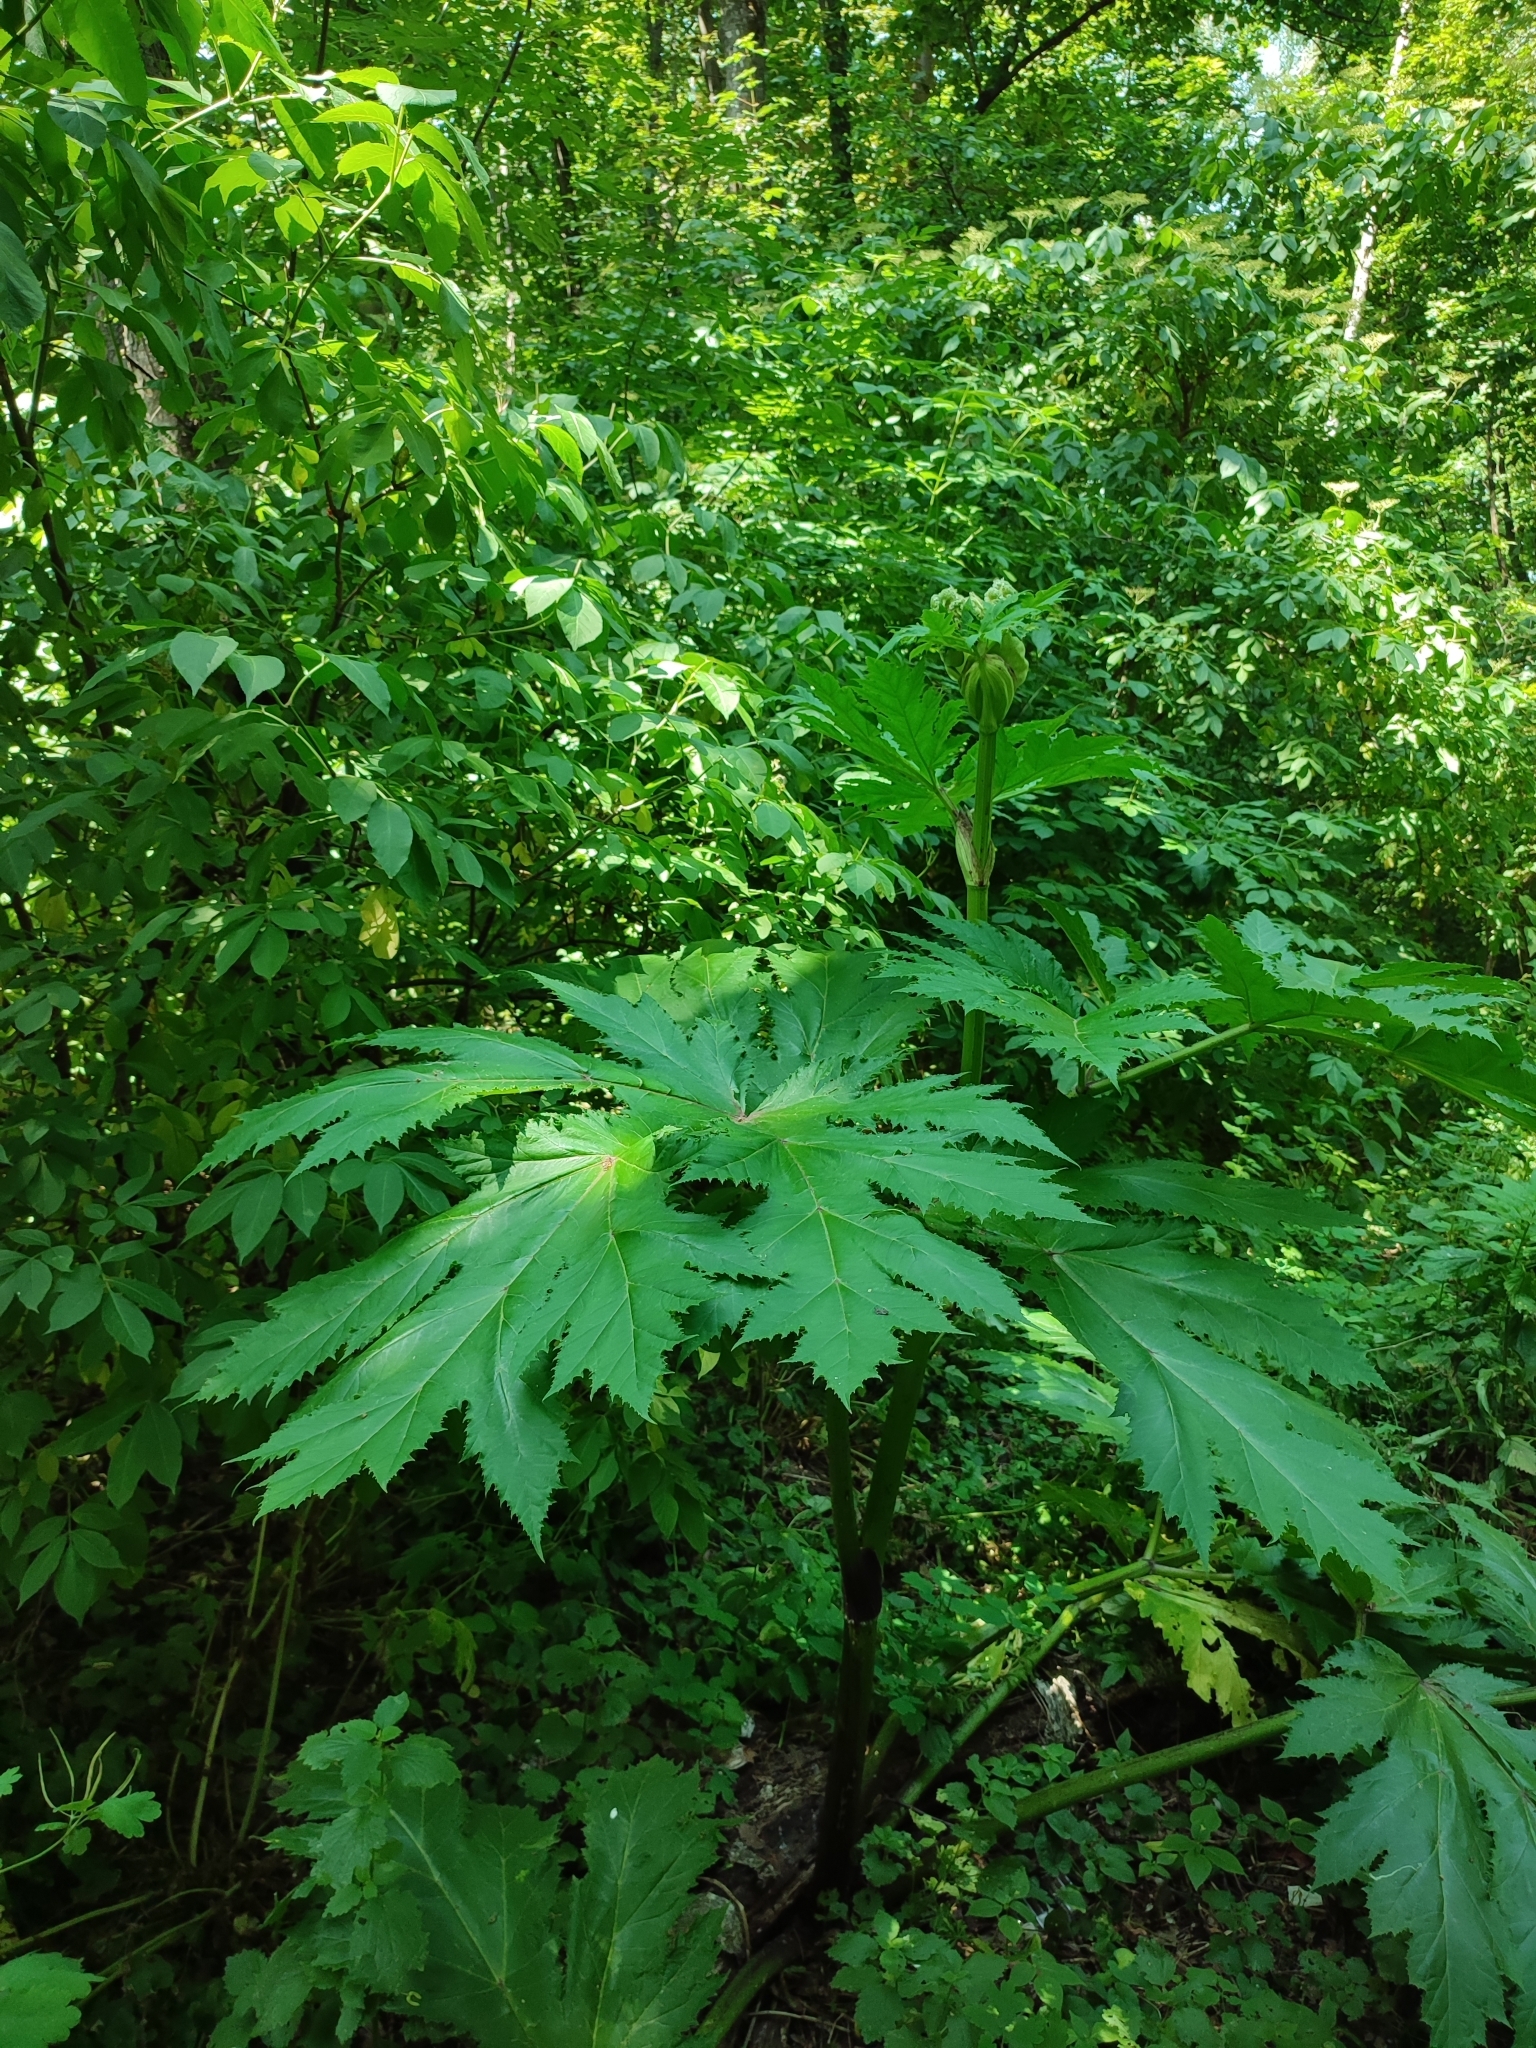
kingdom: Plantae
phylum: Tracheophyta
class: Magnoliopsida
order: Apiales
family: Apiaceae
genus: Heracleum
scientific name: Heracleum mantegazzianum
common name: Giant hogweed
